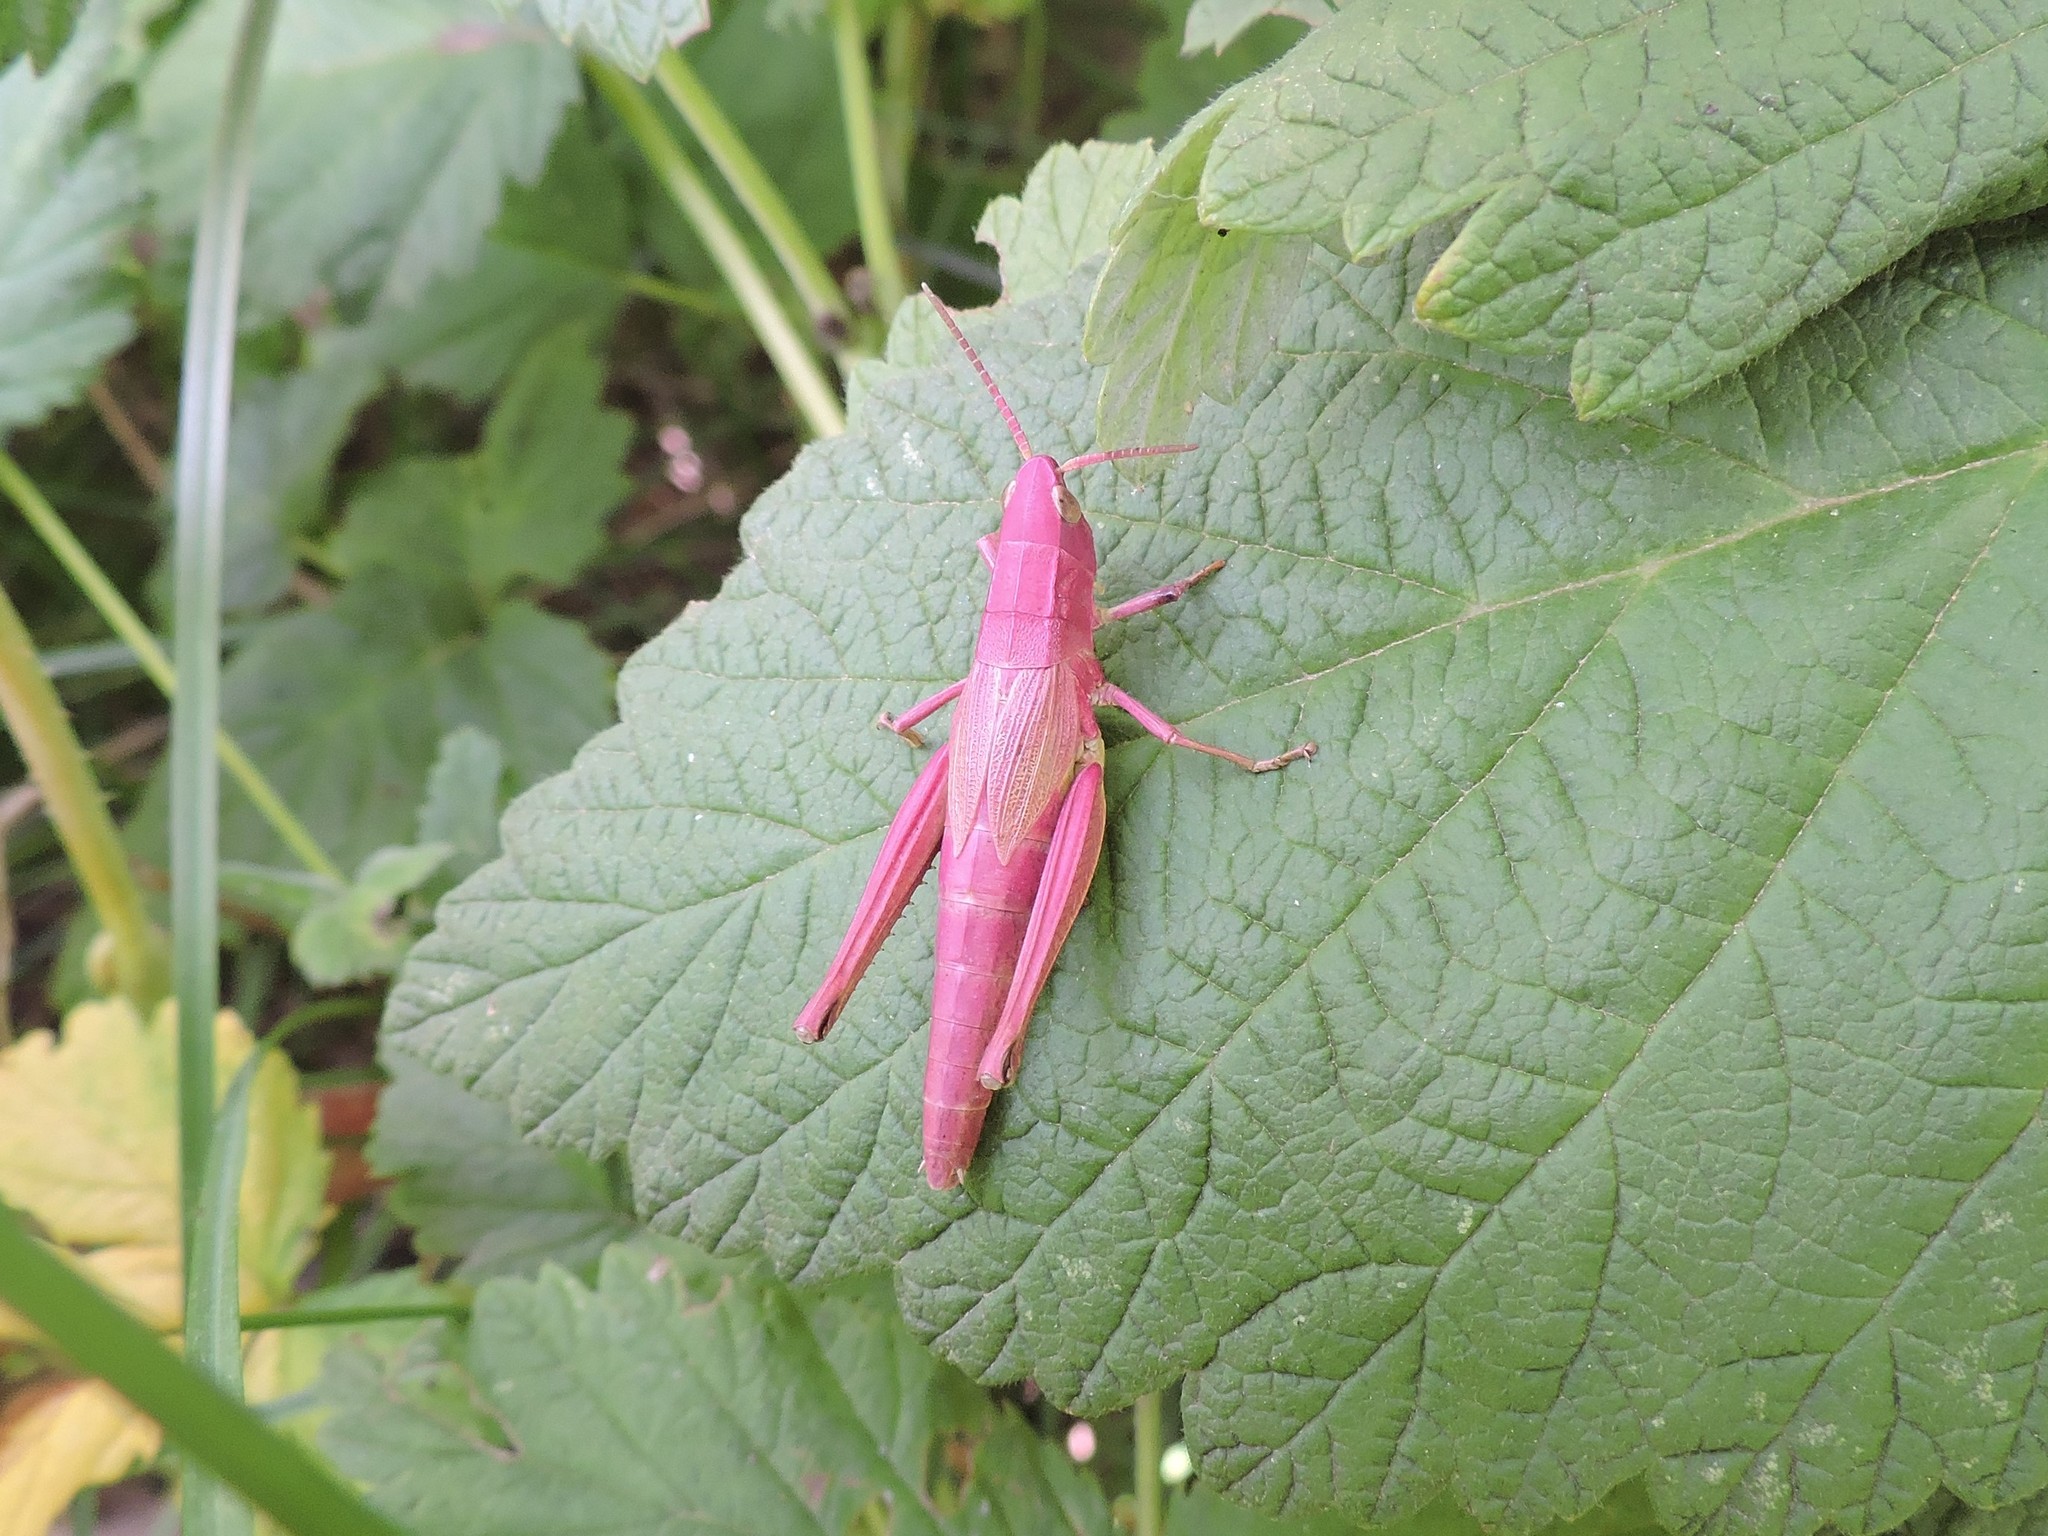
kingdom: Animalia
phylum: Arthropoda
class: Insecta
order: Orthoptera
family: Acrididae
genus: Chrysochraon
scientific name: Chrysochraon dispar
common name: Large gold grasshopper
